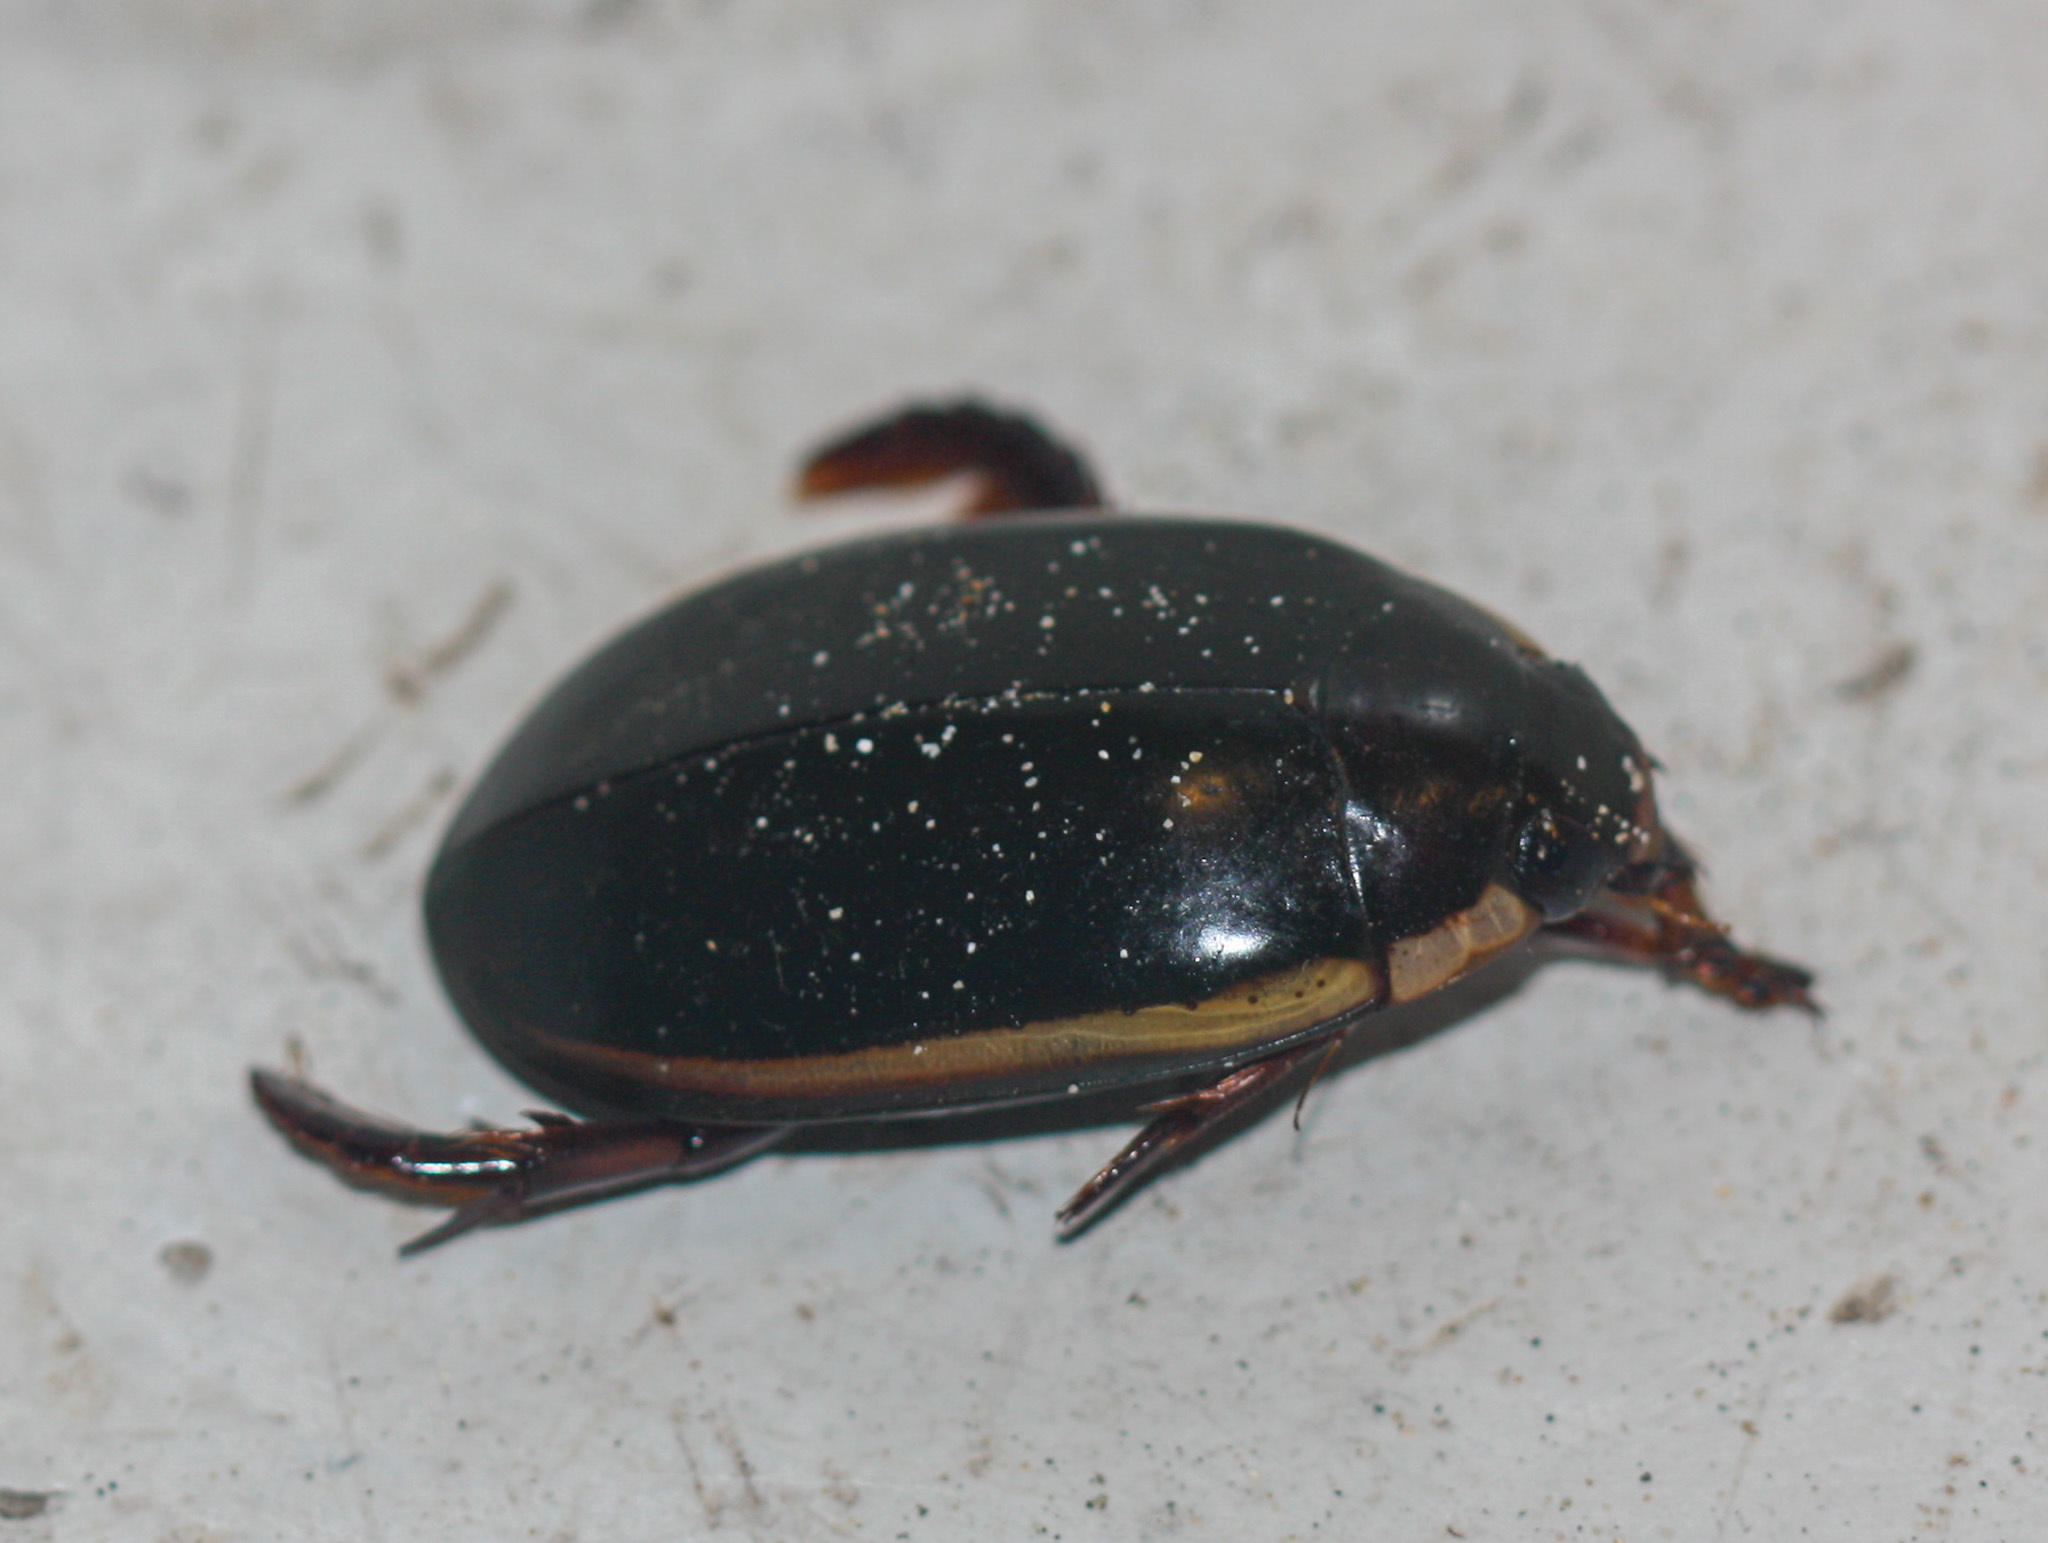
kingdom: Animalia
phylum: Arthropoda
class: Insecta
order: Coleoptera
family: Dytiscidae
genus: Megadytes
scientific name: Megadytes
